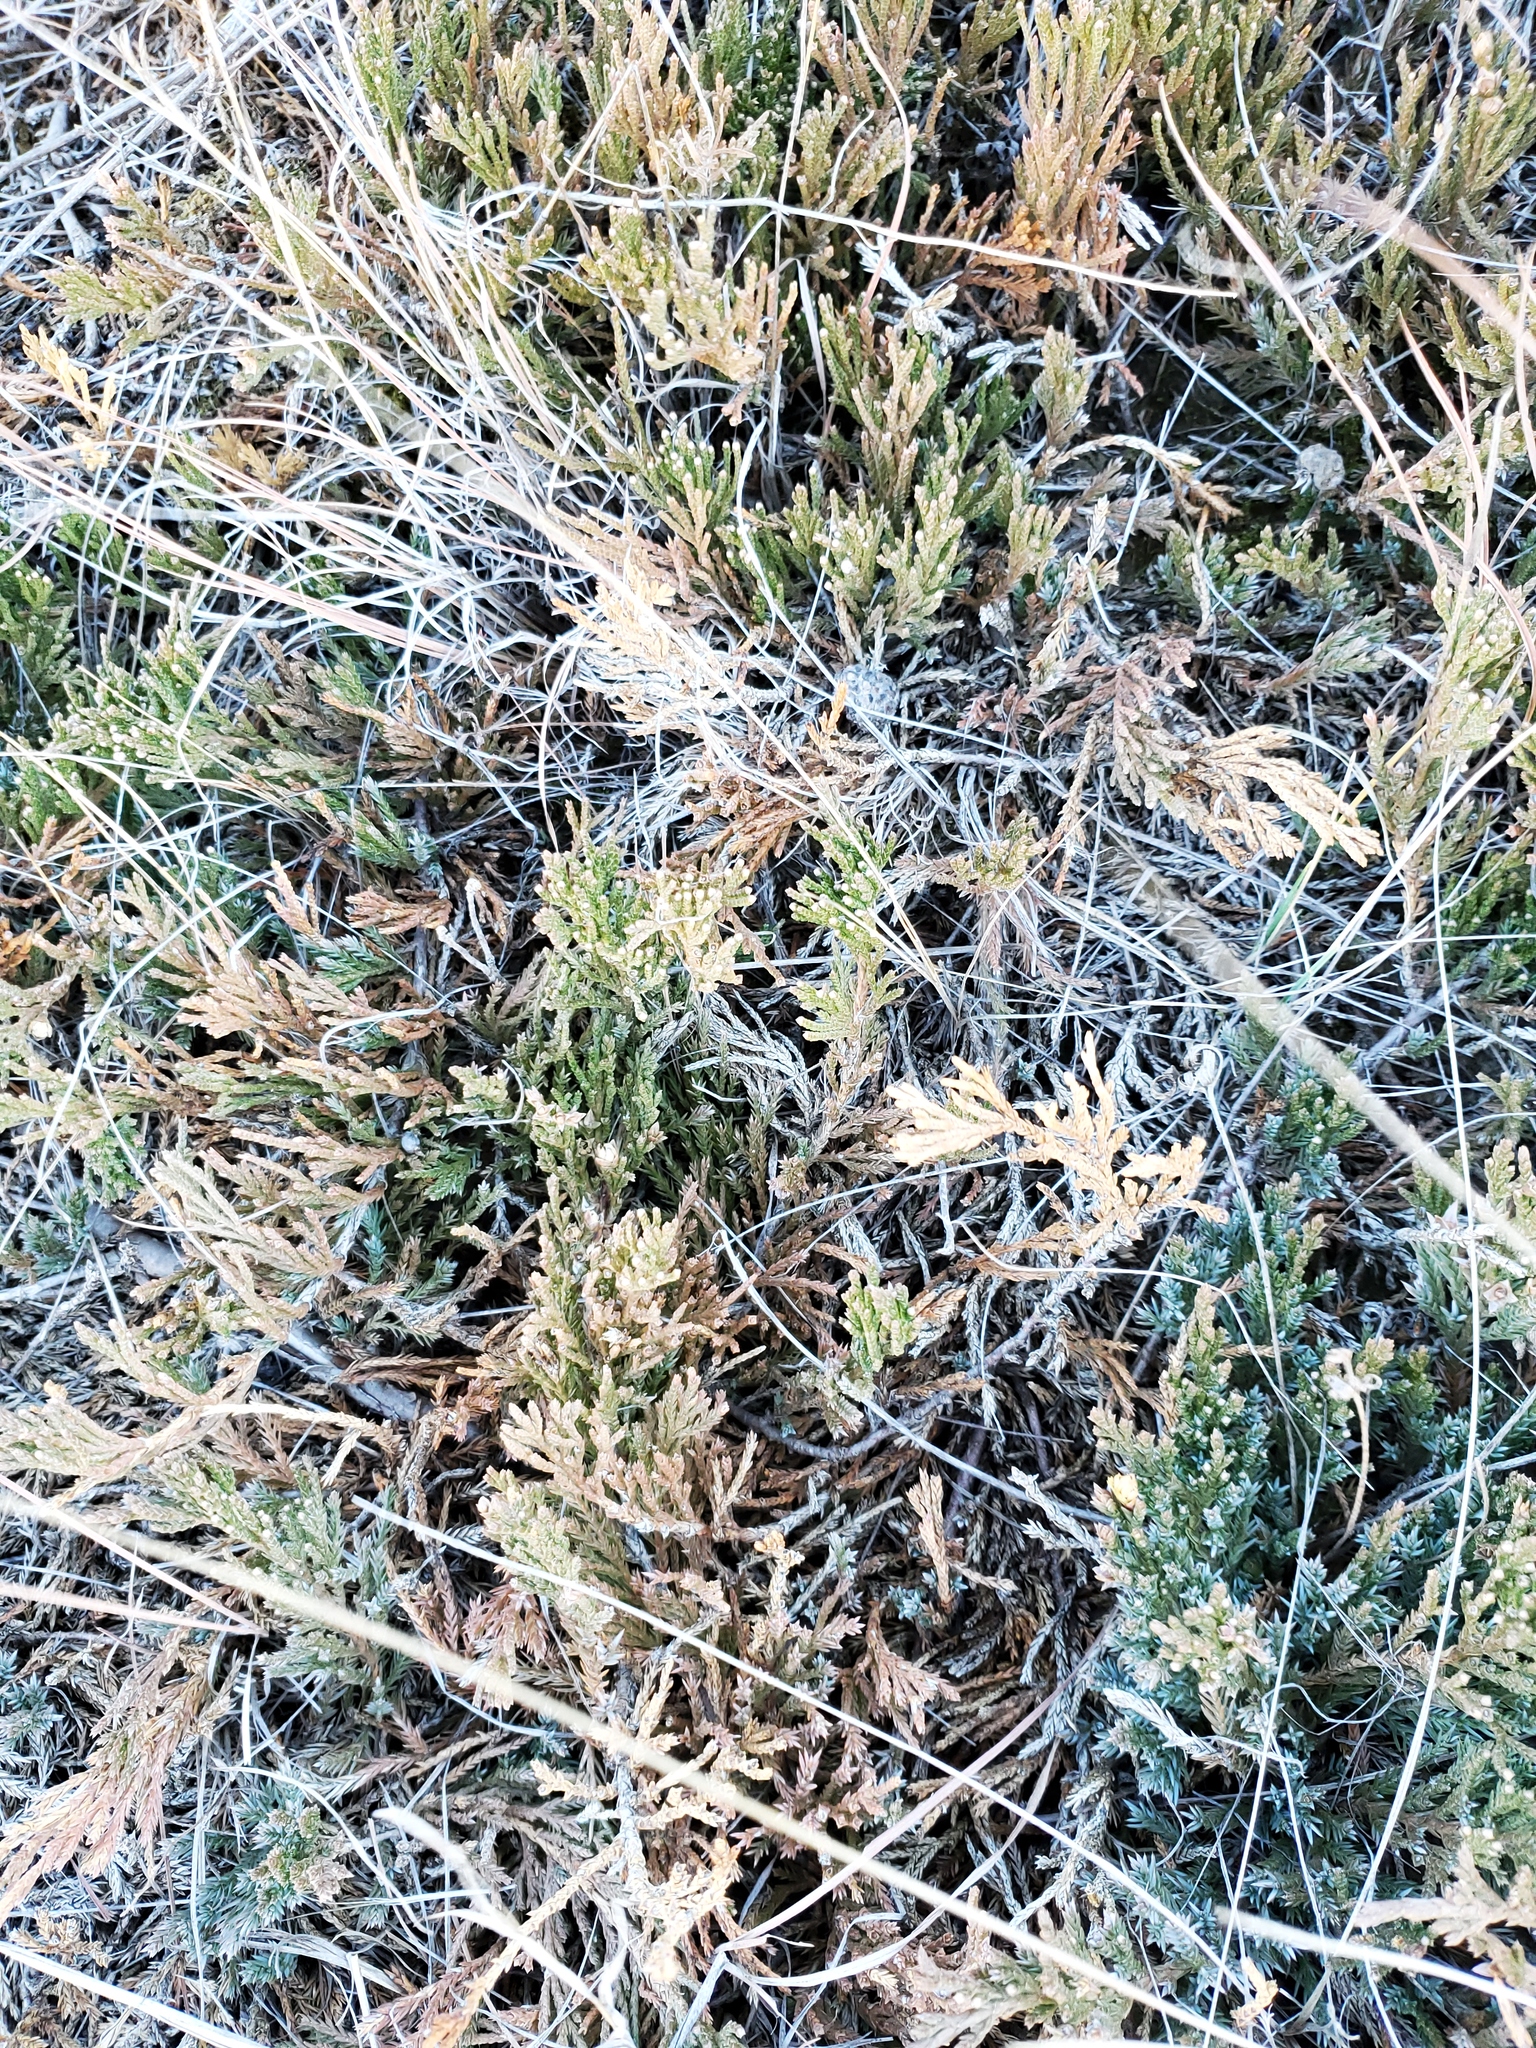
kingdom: Plantae
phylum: Tracheophyta
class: Pinopsida
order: Pinales
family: Cupressaceae
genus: Juniperus
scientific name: Juniperus horizontalis
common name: Creeping juniper
